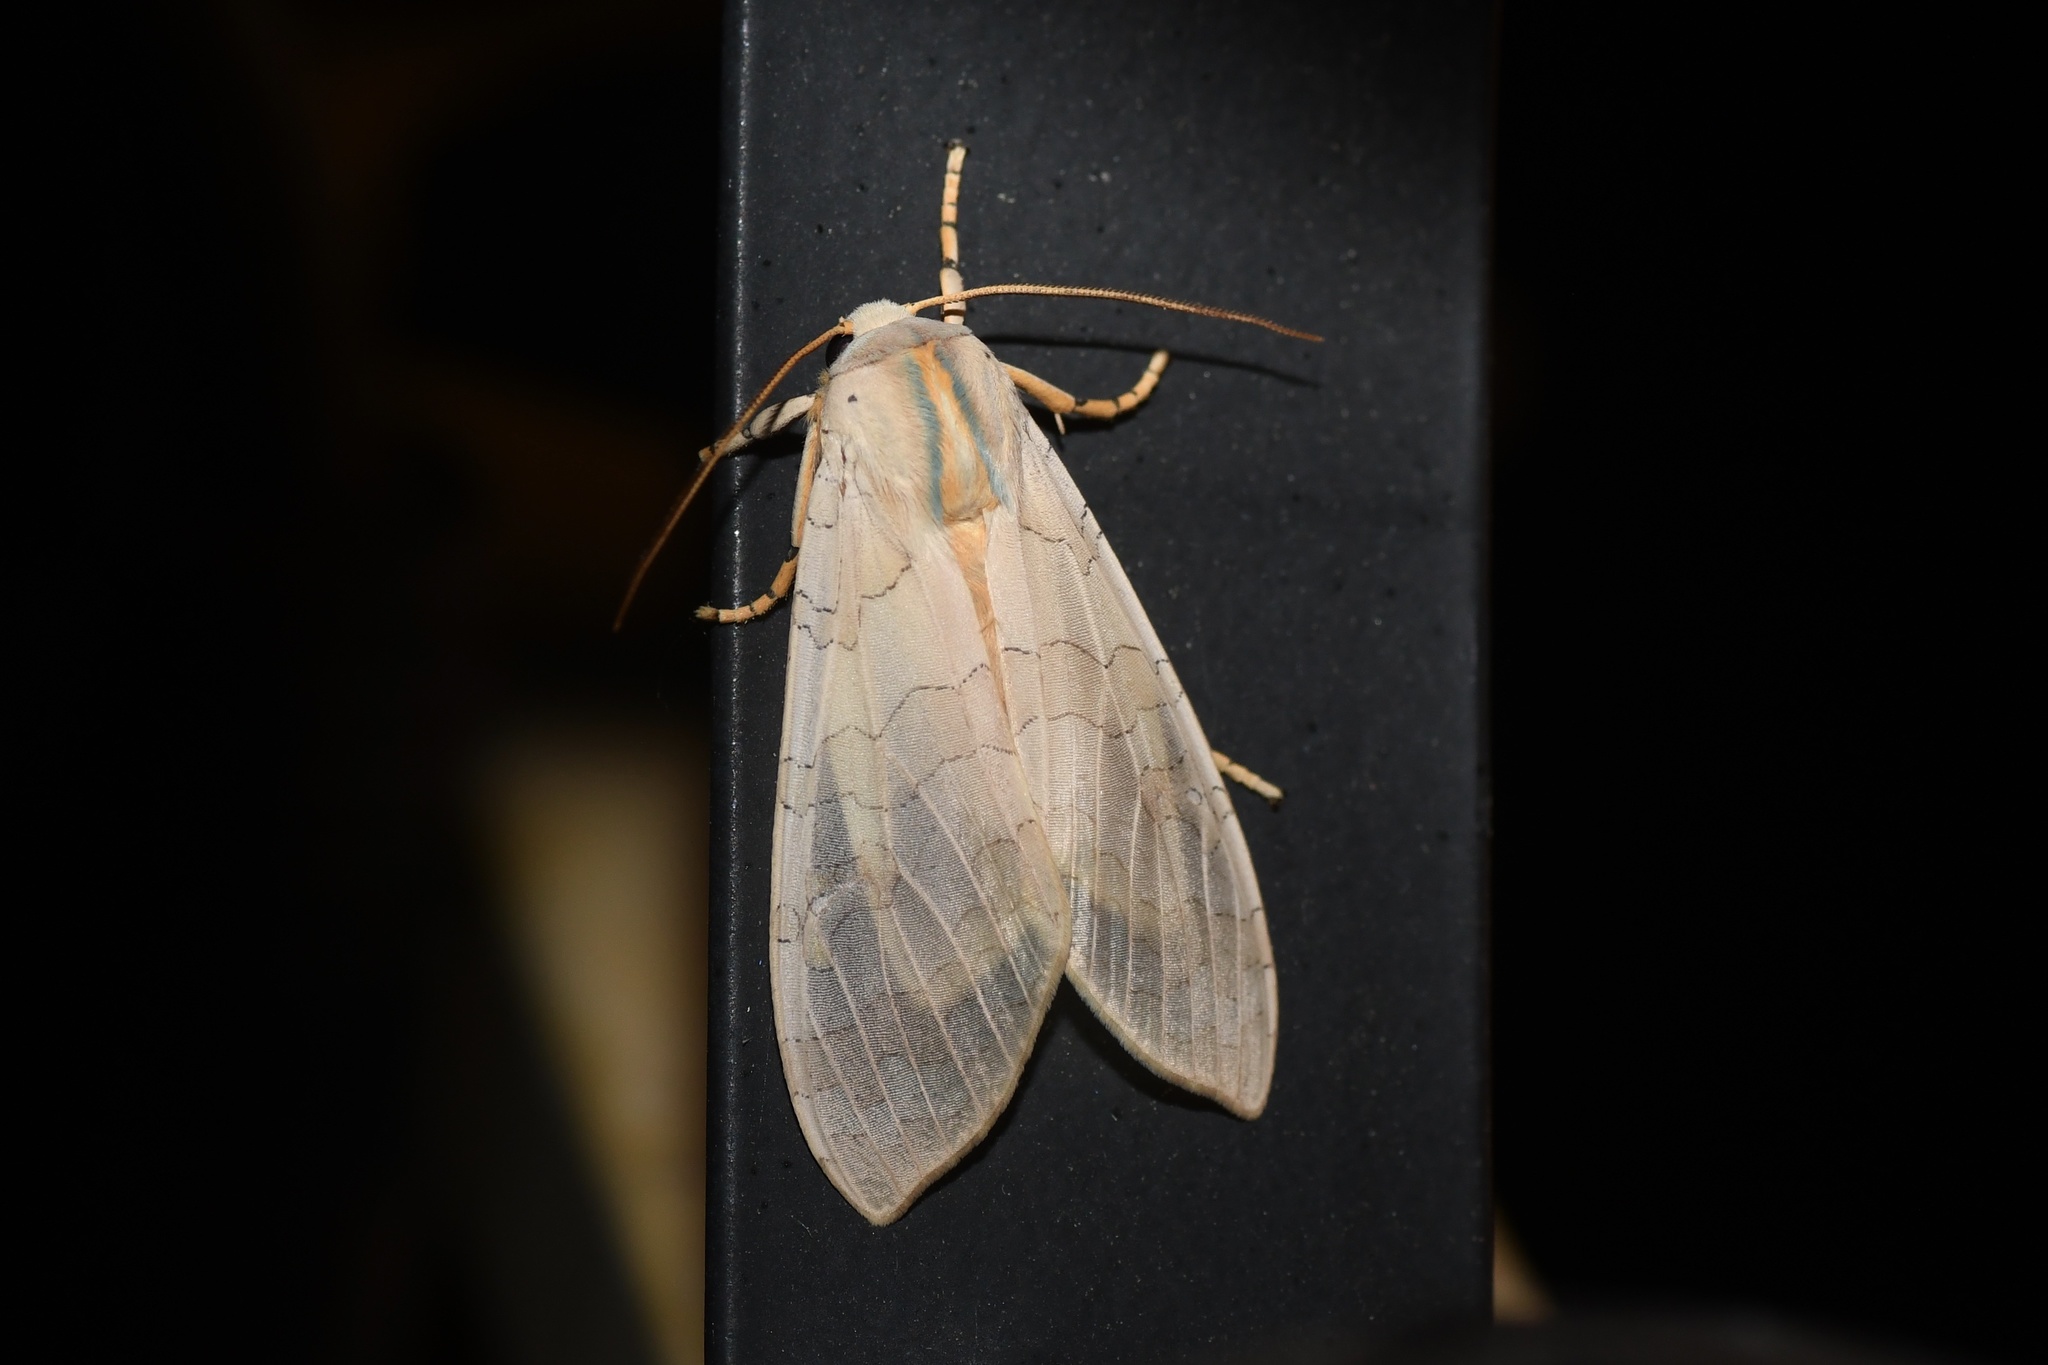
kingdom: Animalia
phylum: Arthropoda
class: Insecta
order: Lepidoptera
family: Erebidae
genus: Halysidota
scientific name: Halysidota tessellaris
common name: Banded tussock moth
